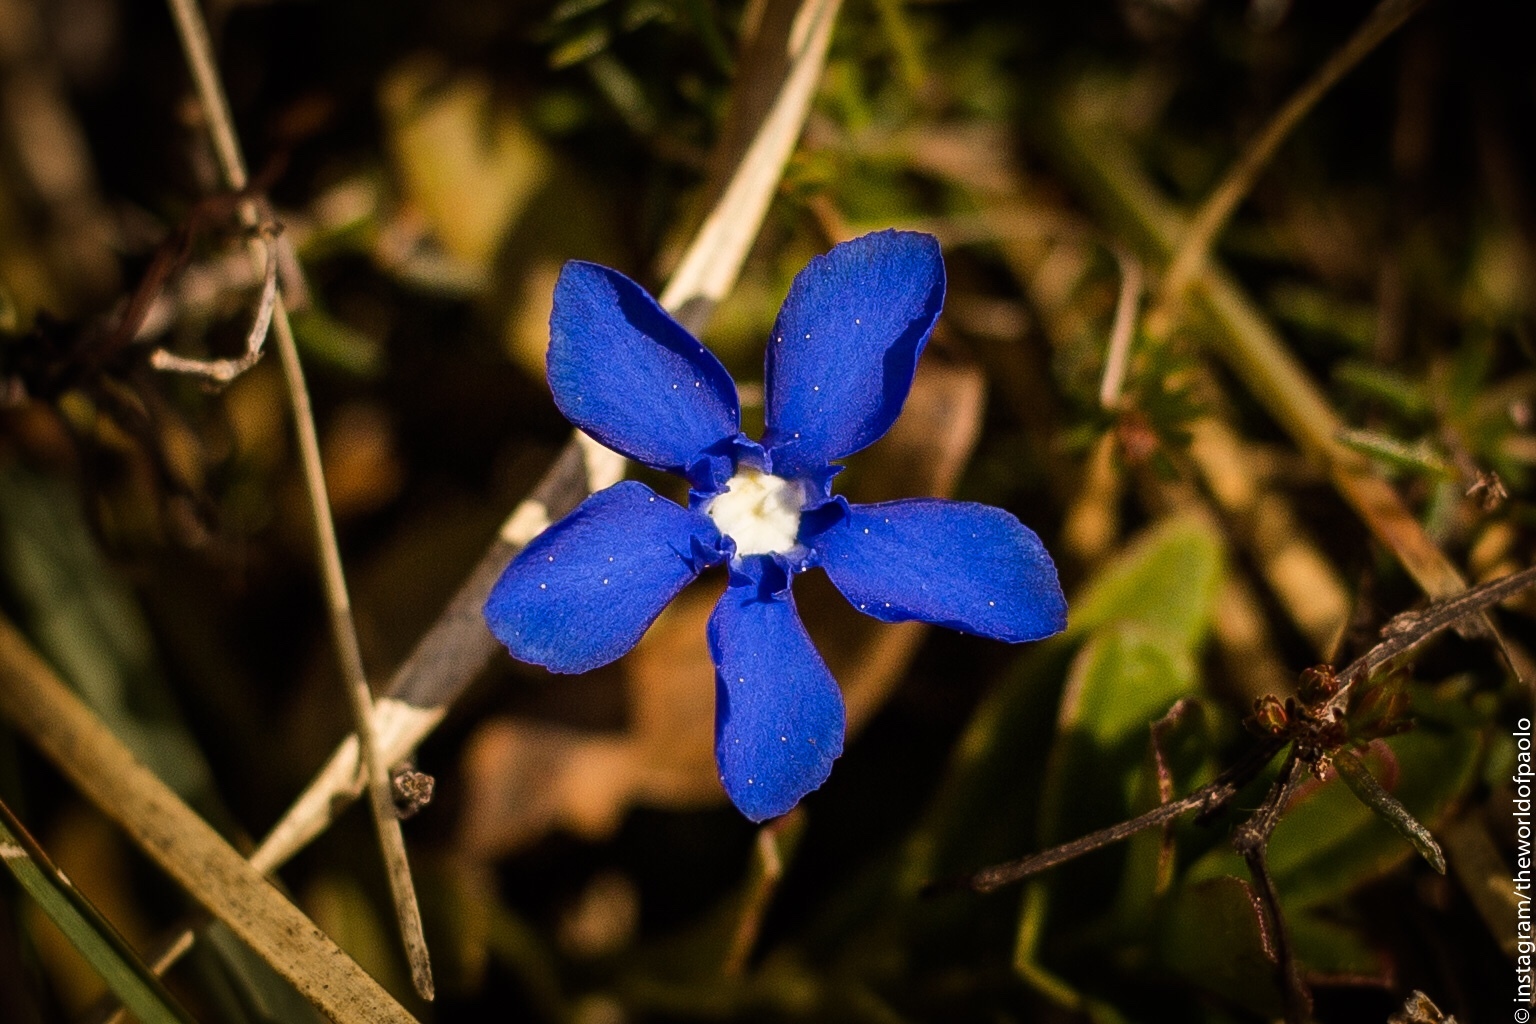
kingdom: Plantae
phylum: Tracheophyta
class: Magnoliopsida
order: Gentianales
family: Gentianaceae
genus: Gentiana
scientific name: Gentiana verna
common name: Spring gentian
